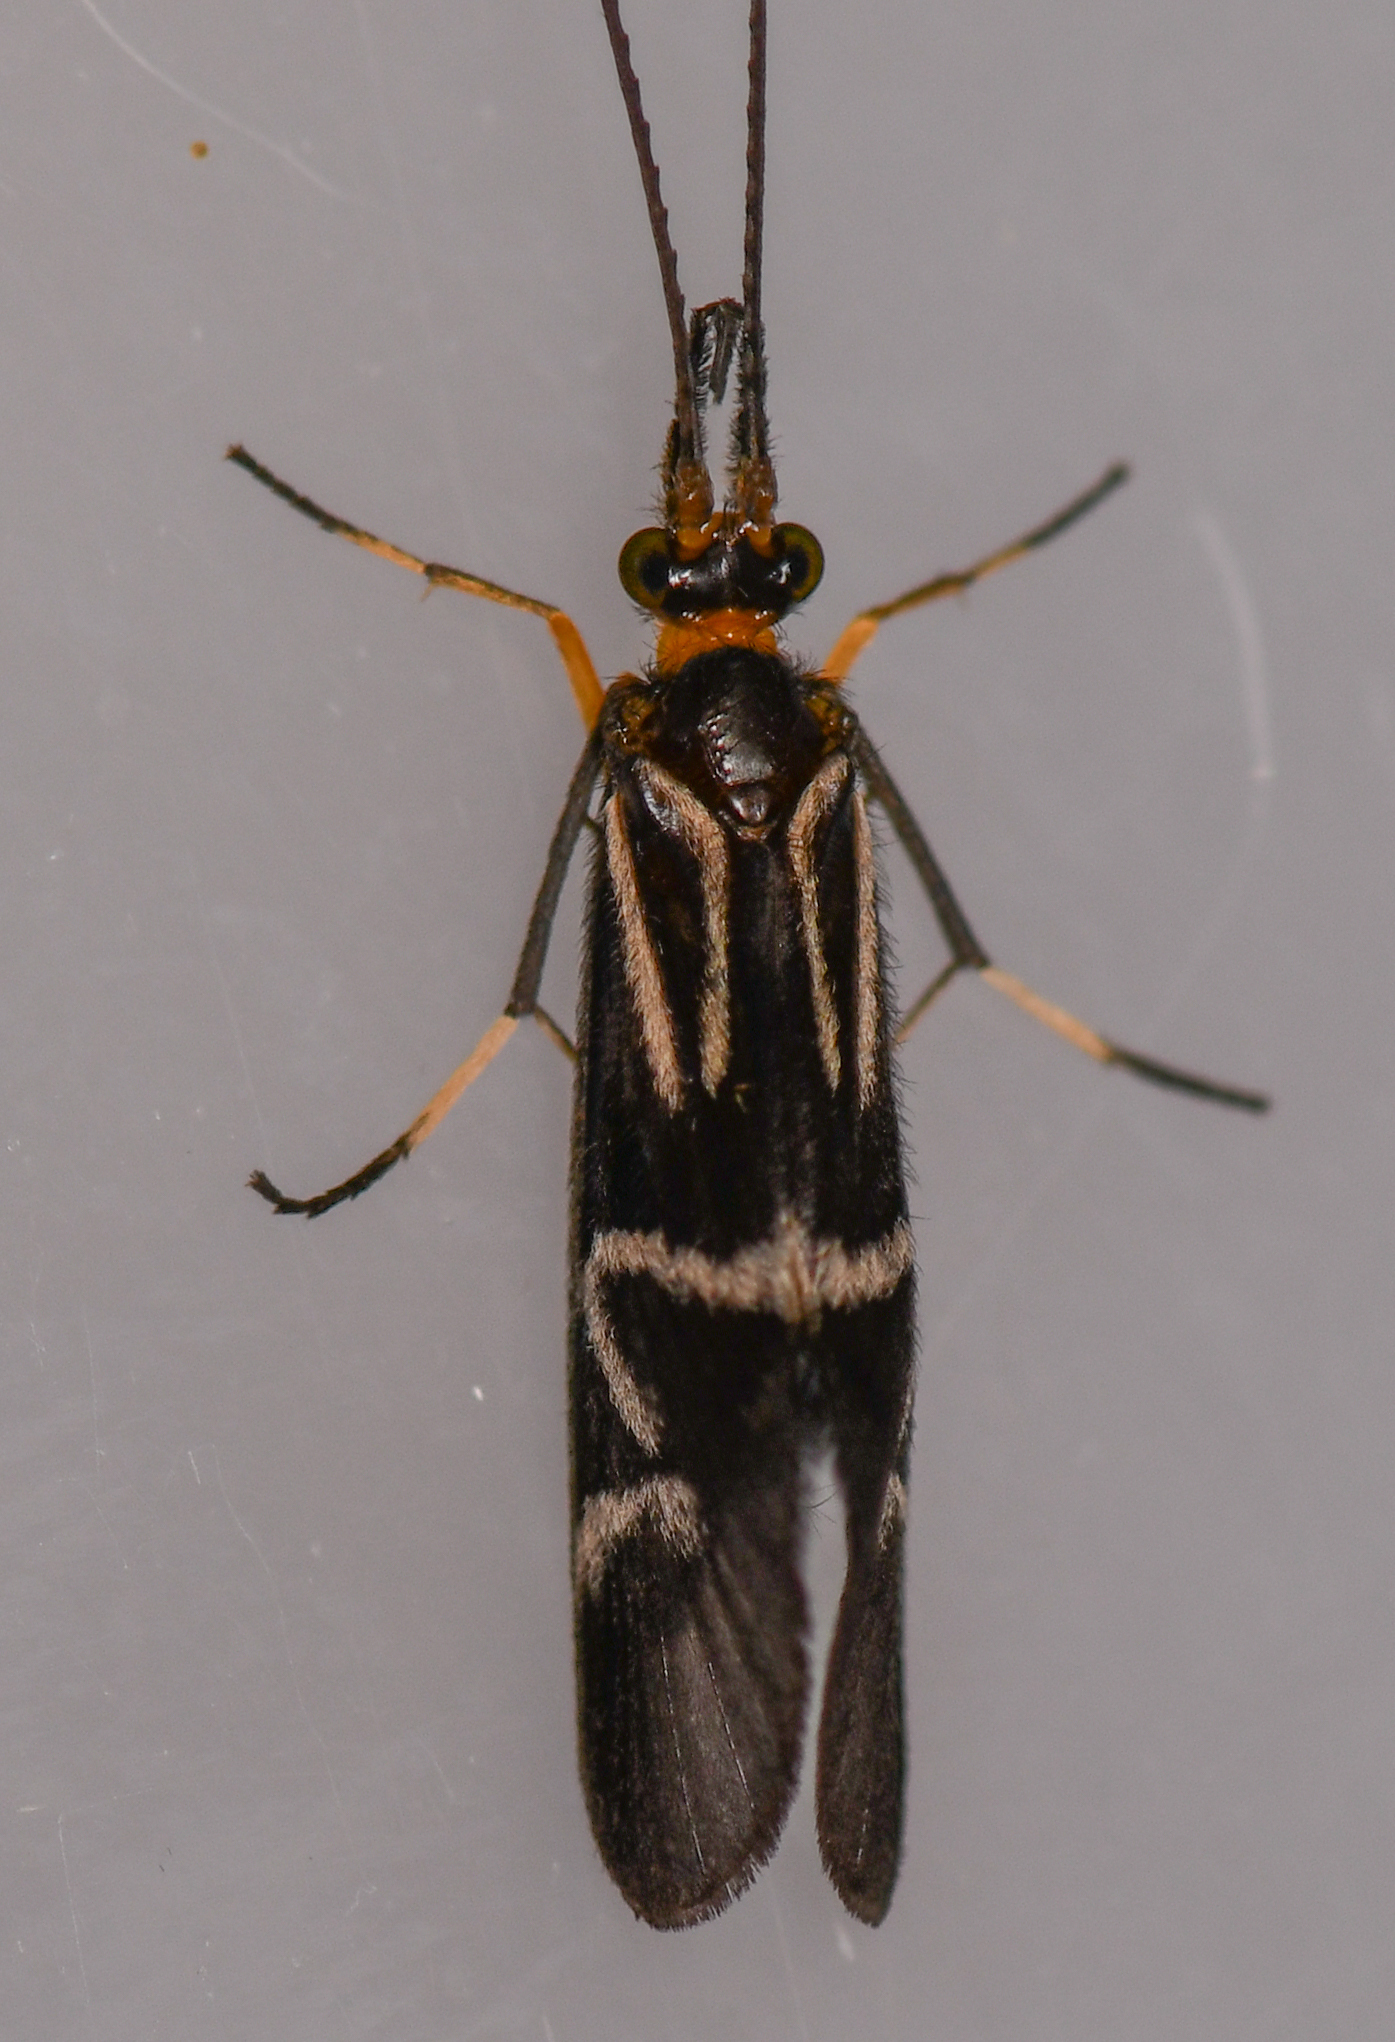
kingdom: Animalia
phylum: Arthropoda
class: Insecta
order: Trichoptera
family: Calamoceratidae
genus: Phylloicus
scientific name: Phylloicus elegans
